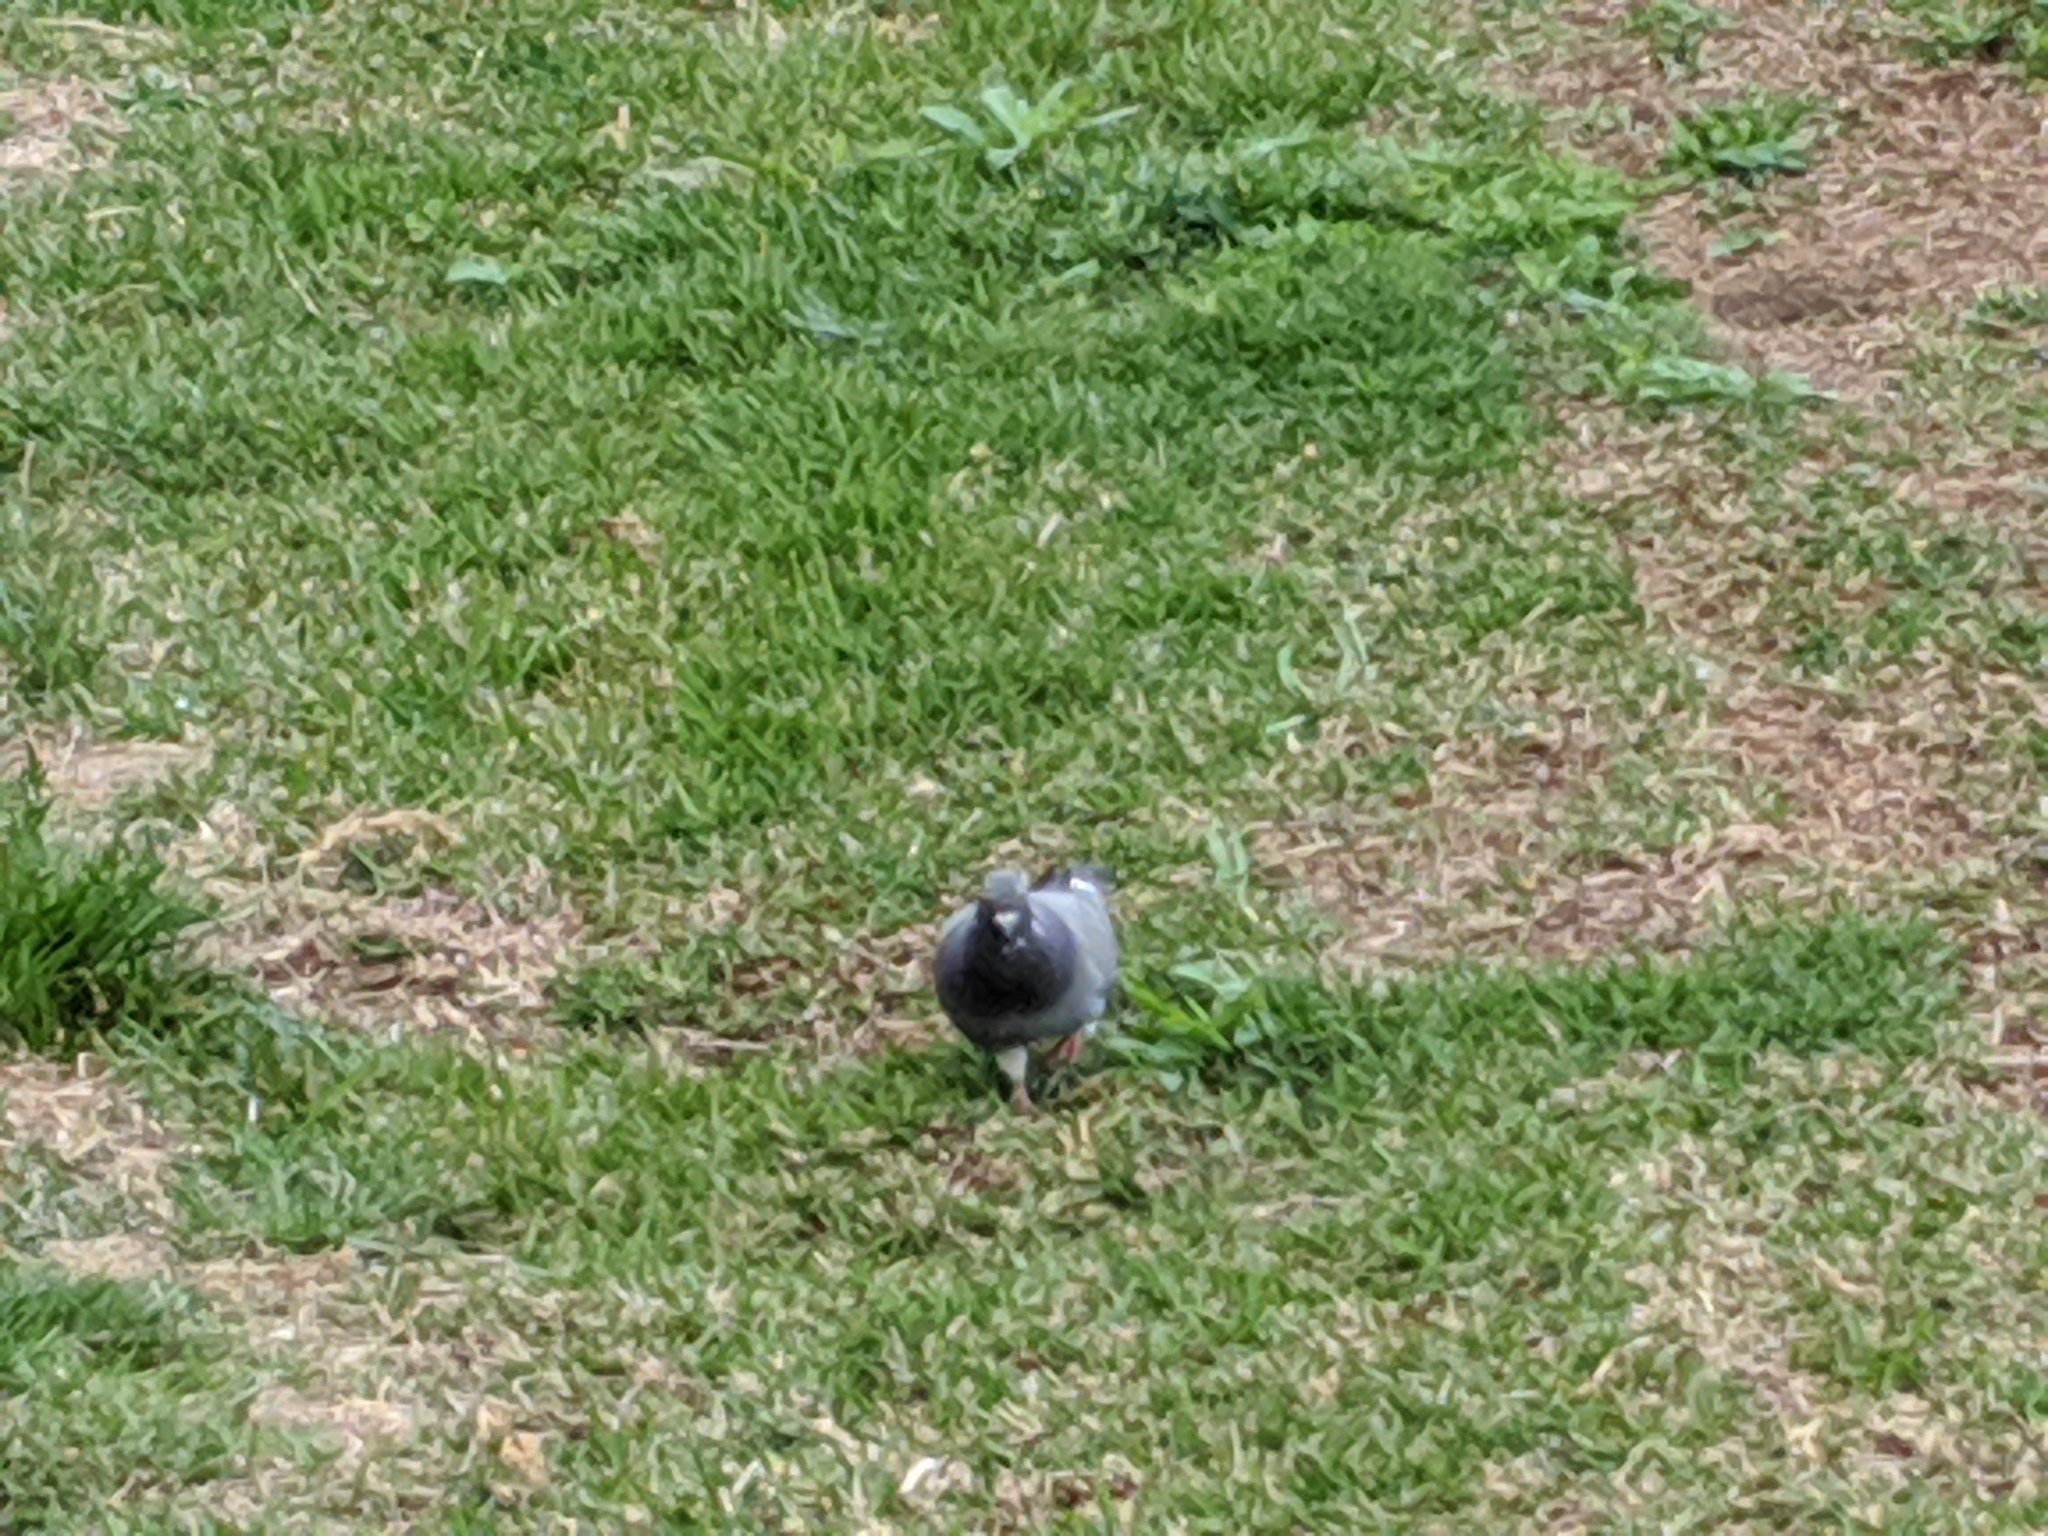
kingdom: Animalia
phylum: Chordata
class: Aves
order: Columbiformes
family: Columbidae
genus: Columba
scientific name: Columba livia
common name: Rock pigeon
